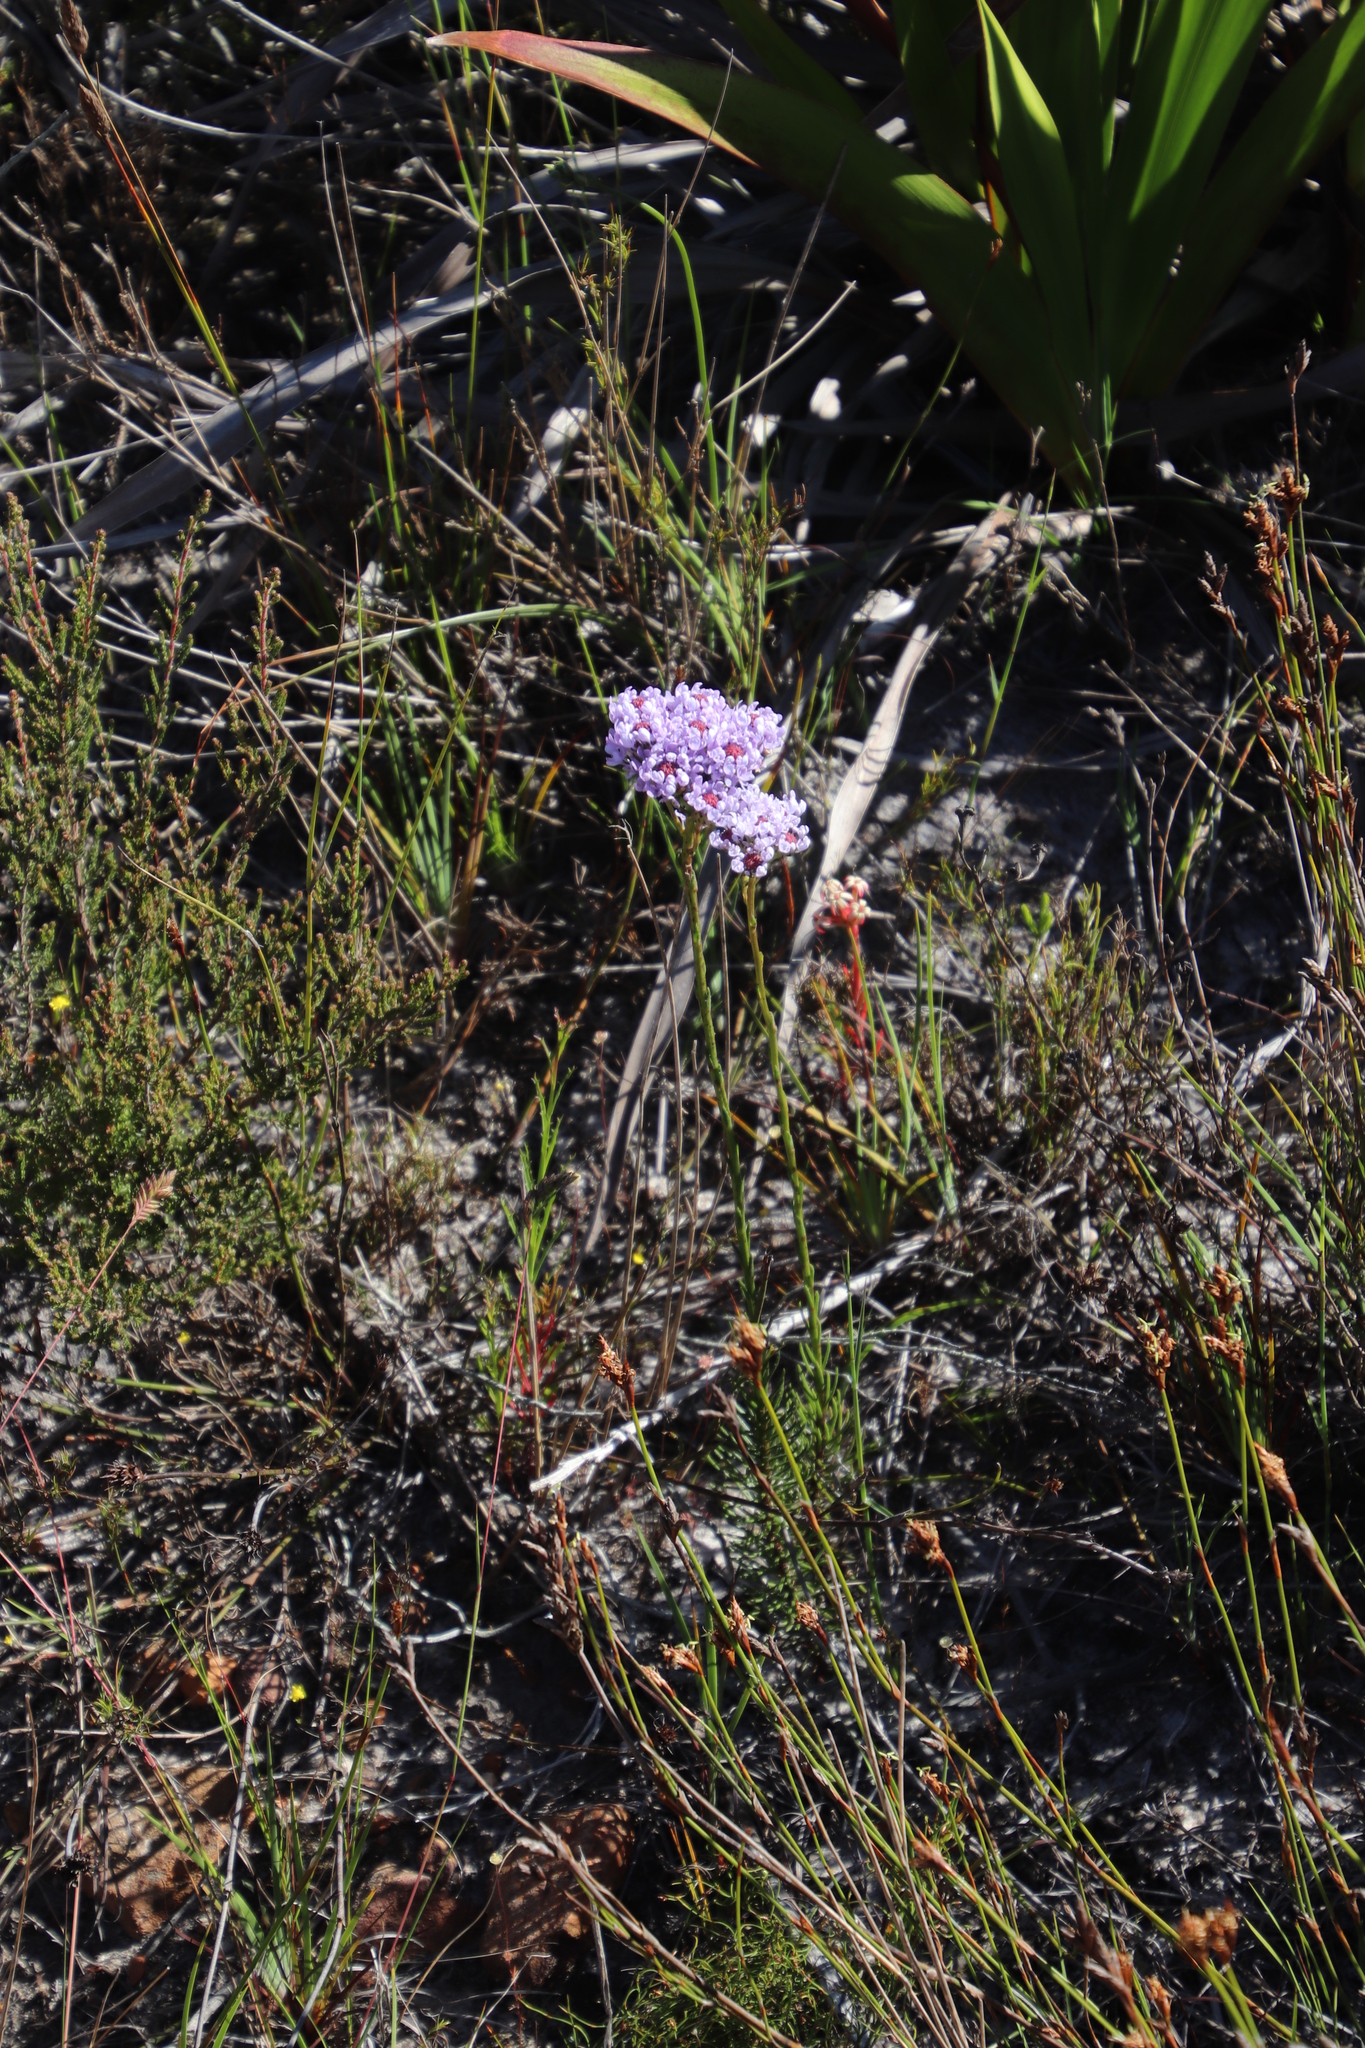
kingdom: Plantae
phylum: Tracheophyta
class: Magnoliopsida
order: Lamiales
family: Scrophulariaceae
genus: Pseudoselago
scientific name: Pseudoselago spuria
